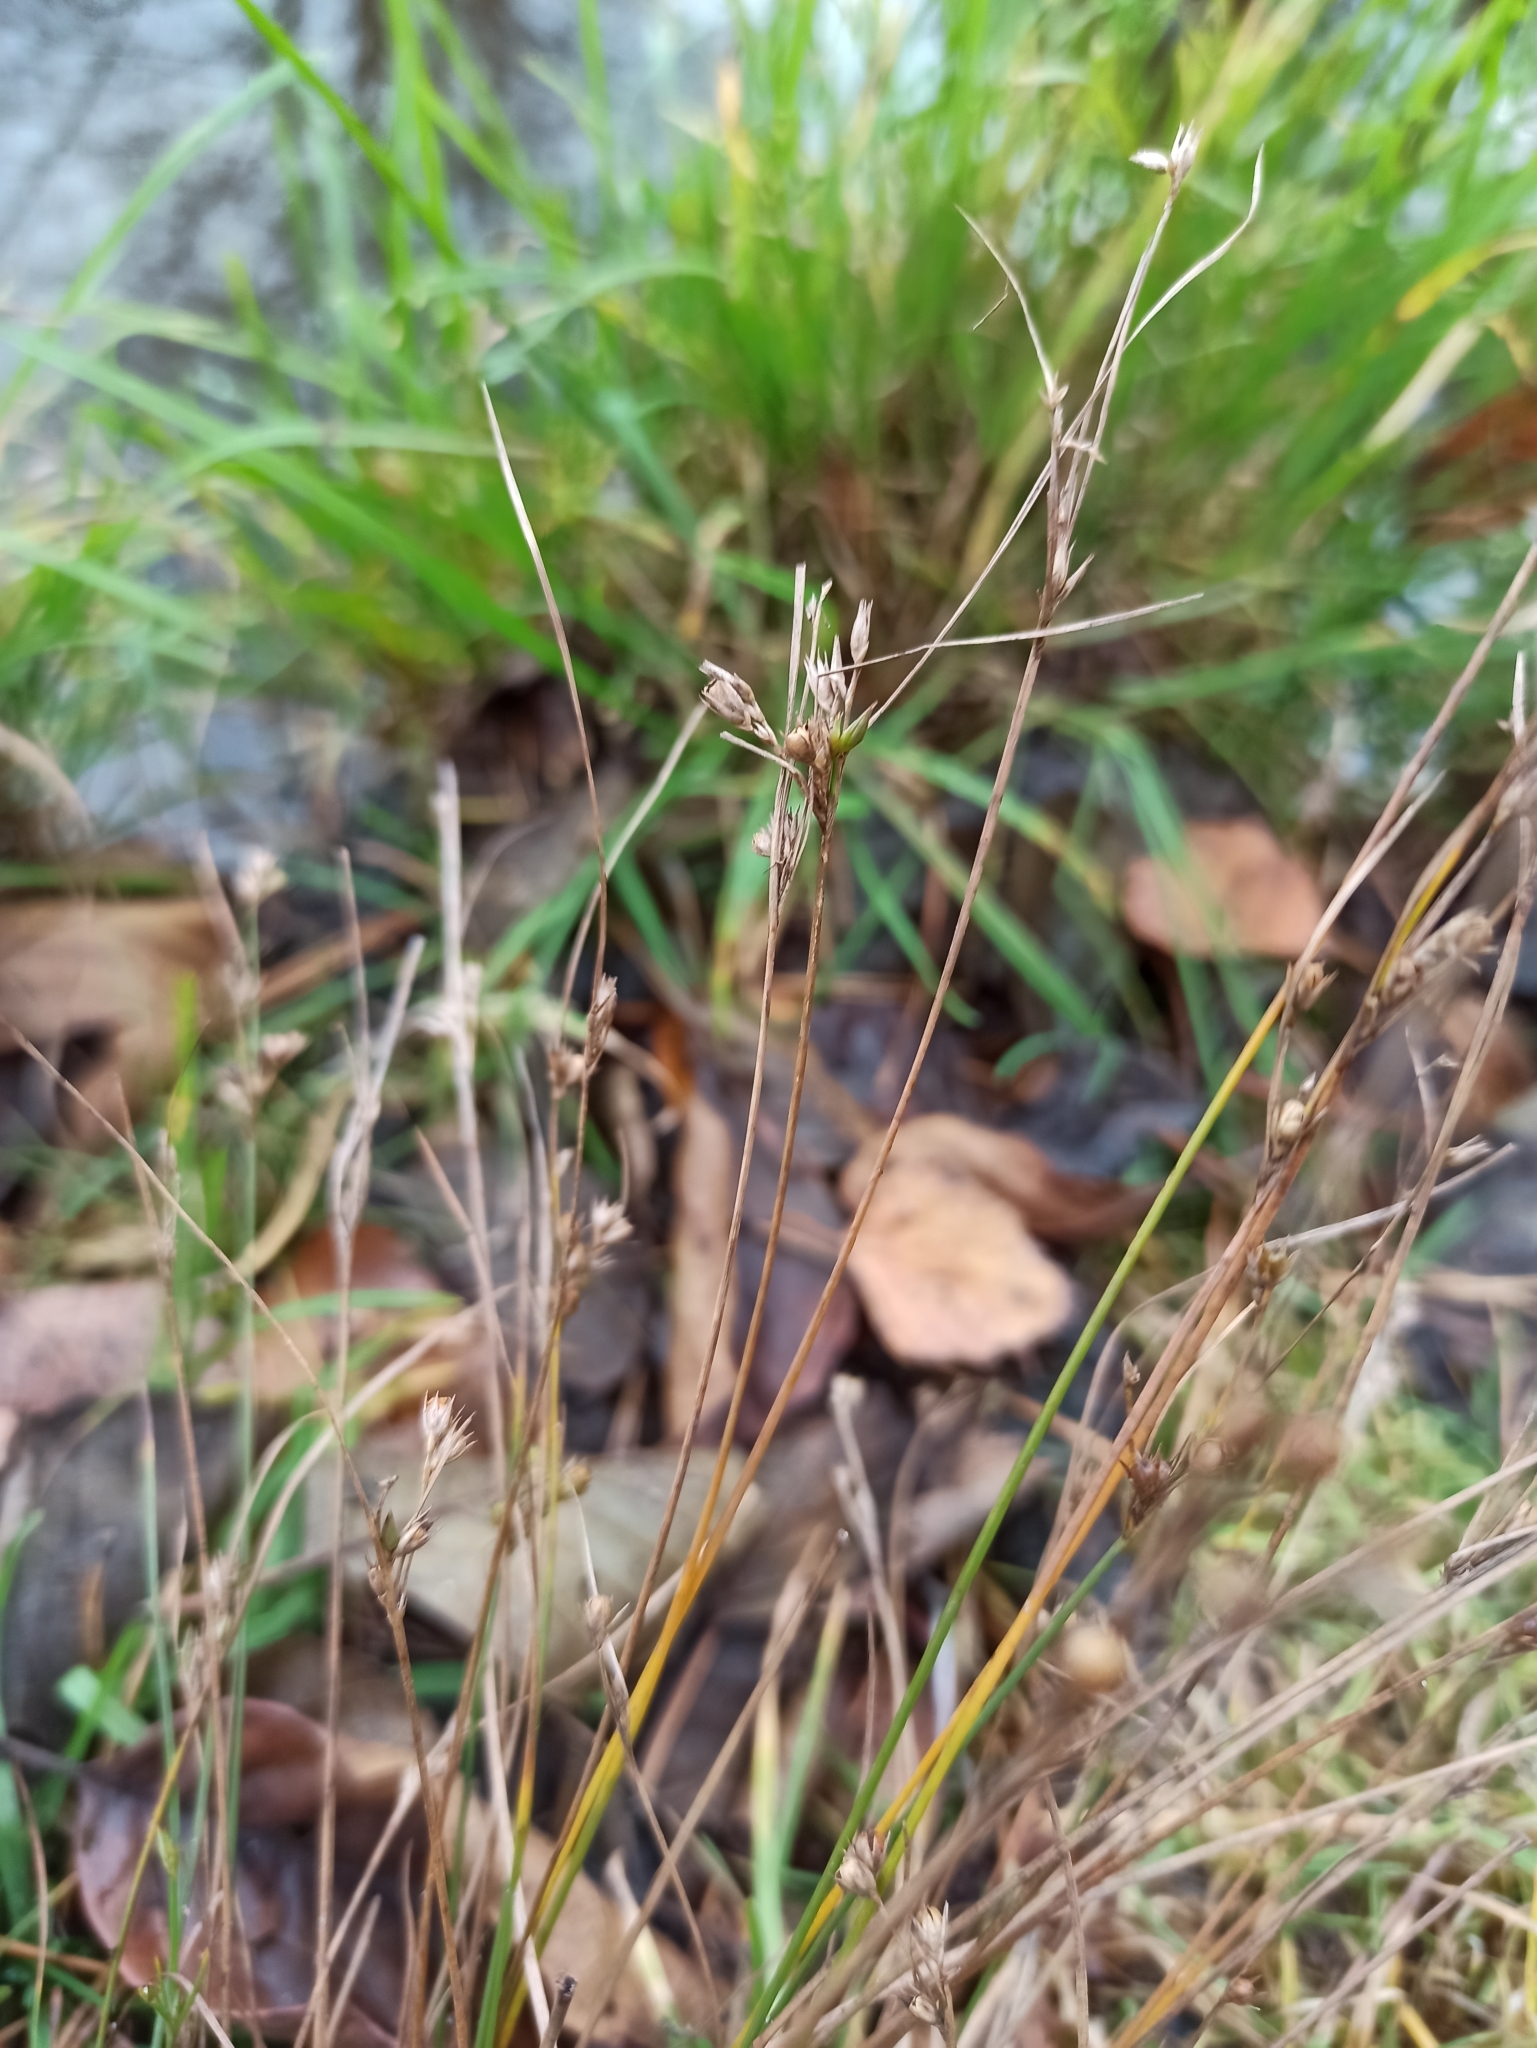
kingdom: Plantae
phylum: Tracheophyta
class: Liliopsida
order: Poales
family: Juncaceae
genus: Juncus
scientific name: Juncus tenuis
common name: Slender rush
